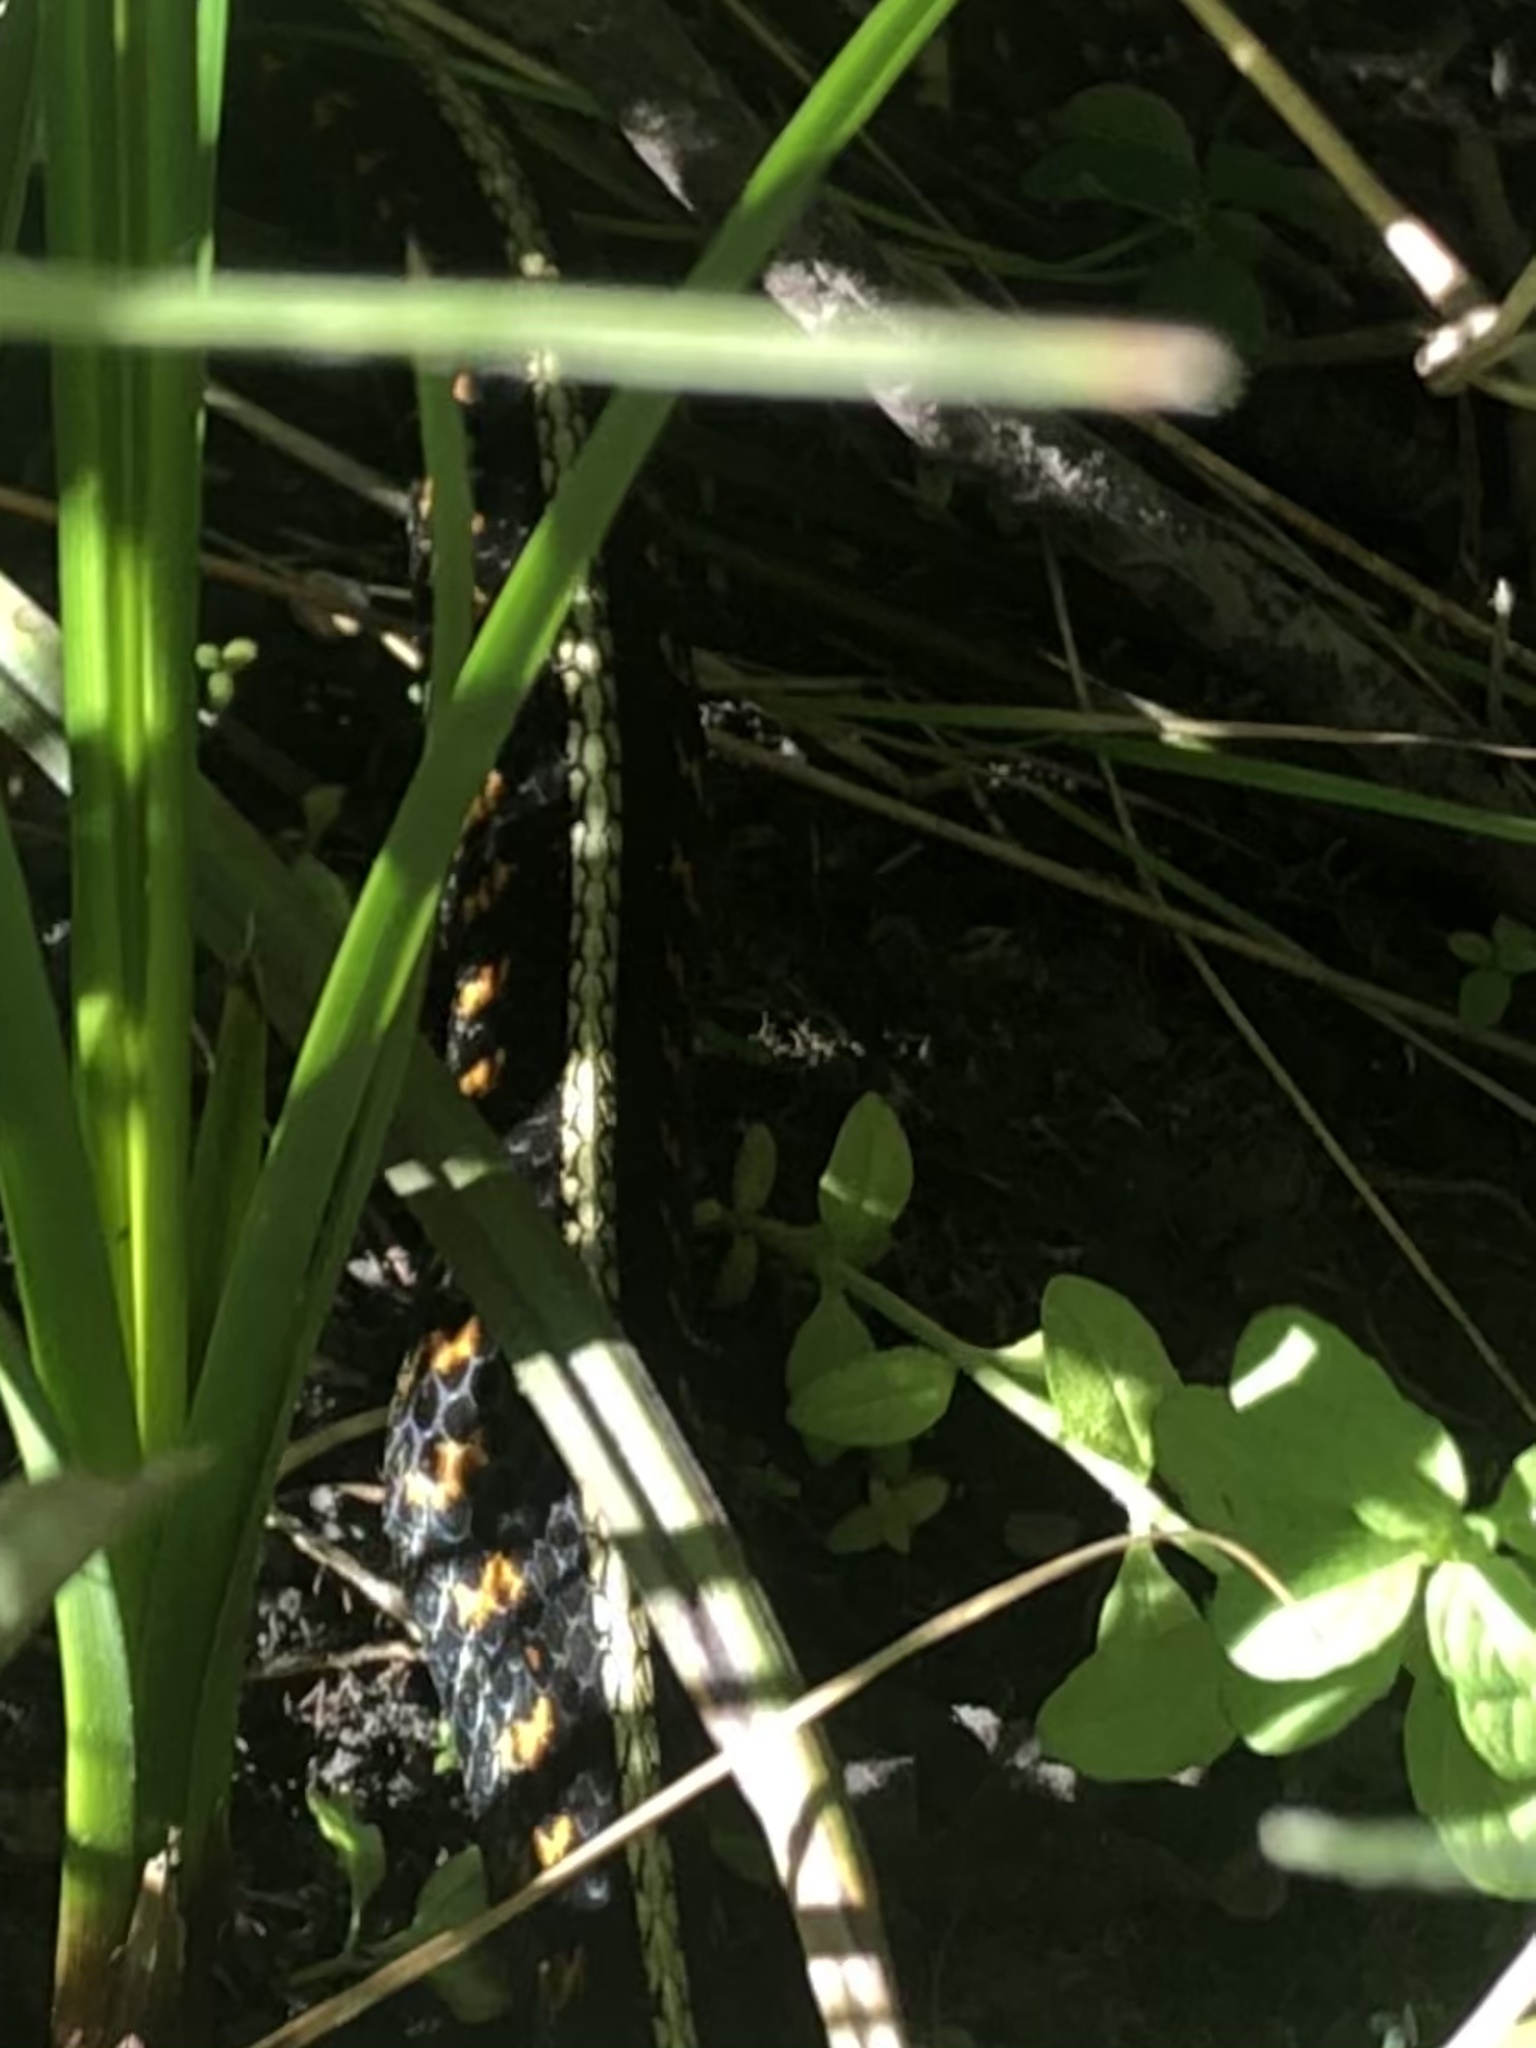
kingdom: Animalia
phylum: Chordata
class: Squamata
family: Colubridae
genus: Thamnophis
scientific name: Thamnophis sirtalis
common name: Common garter snake
